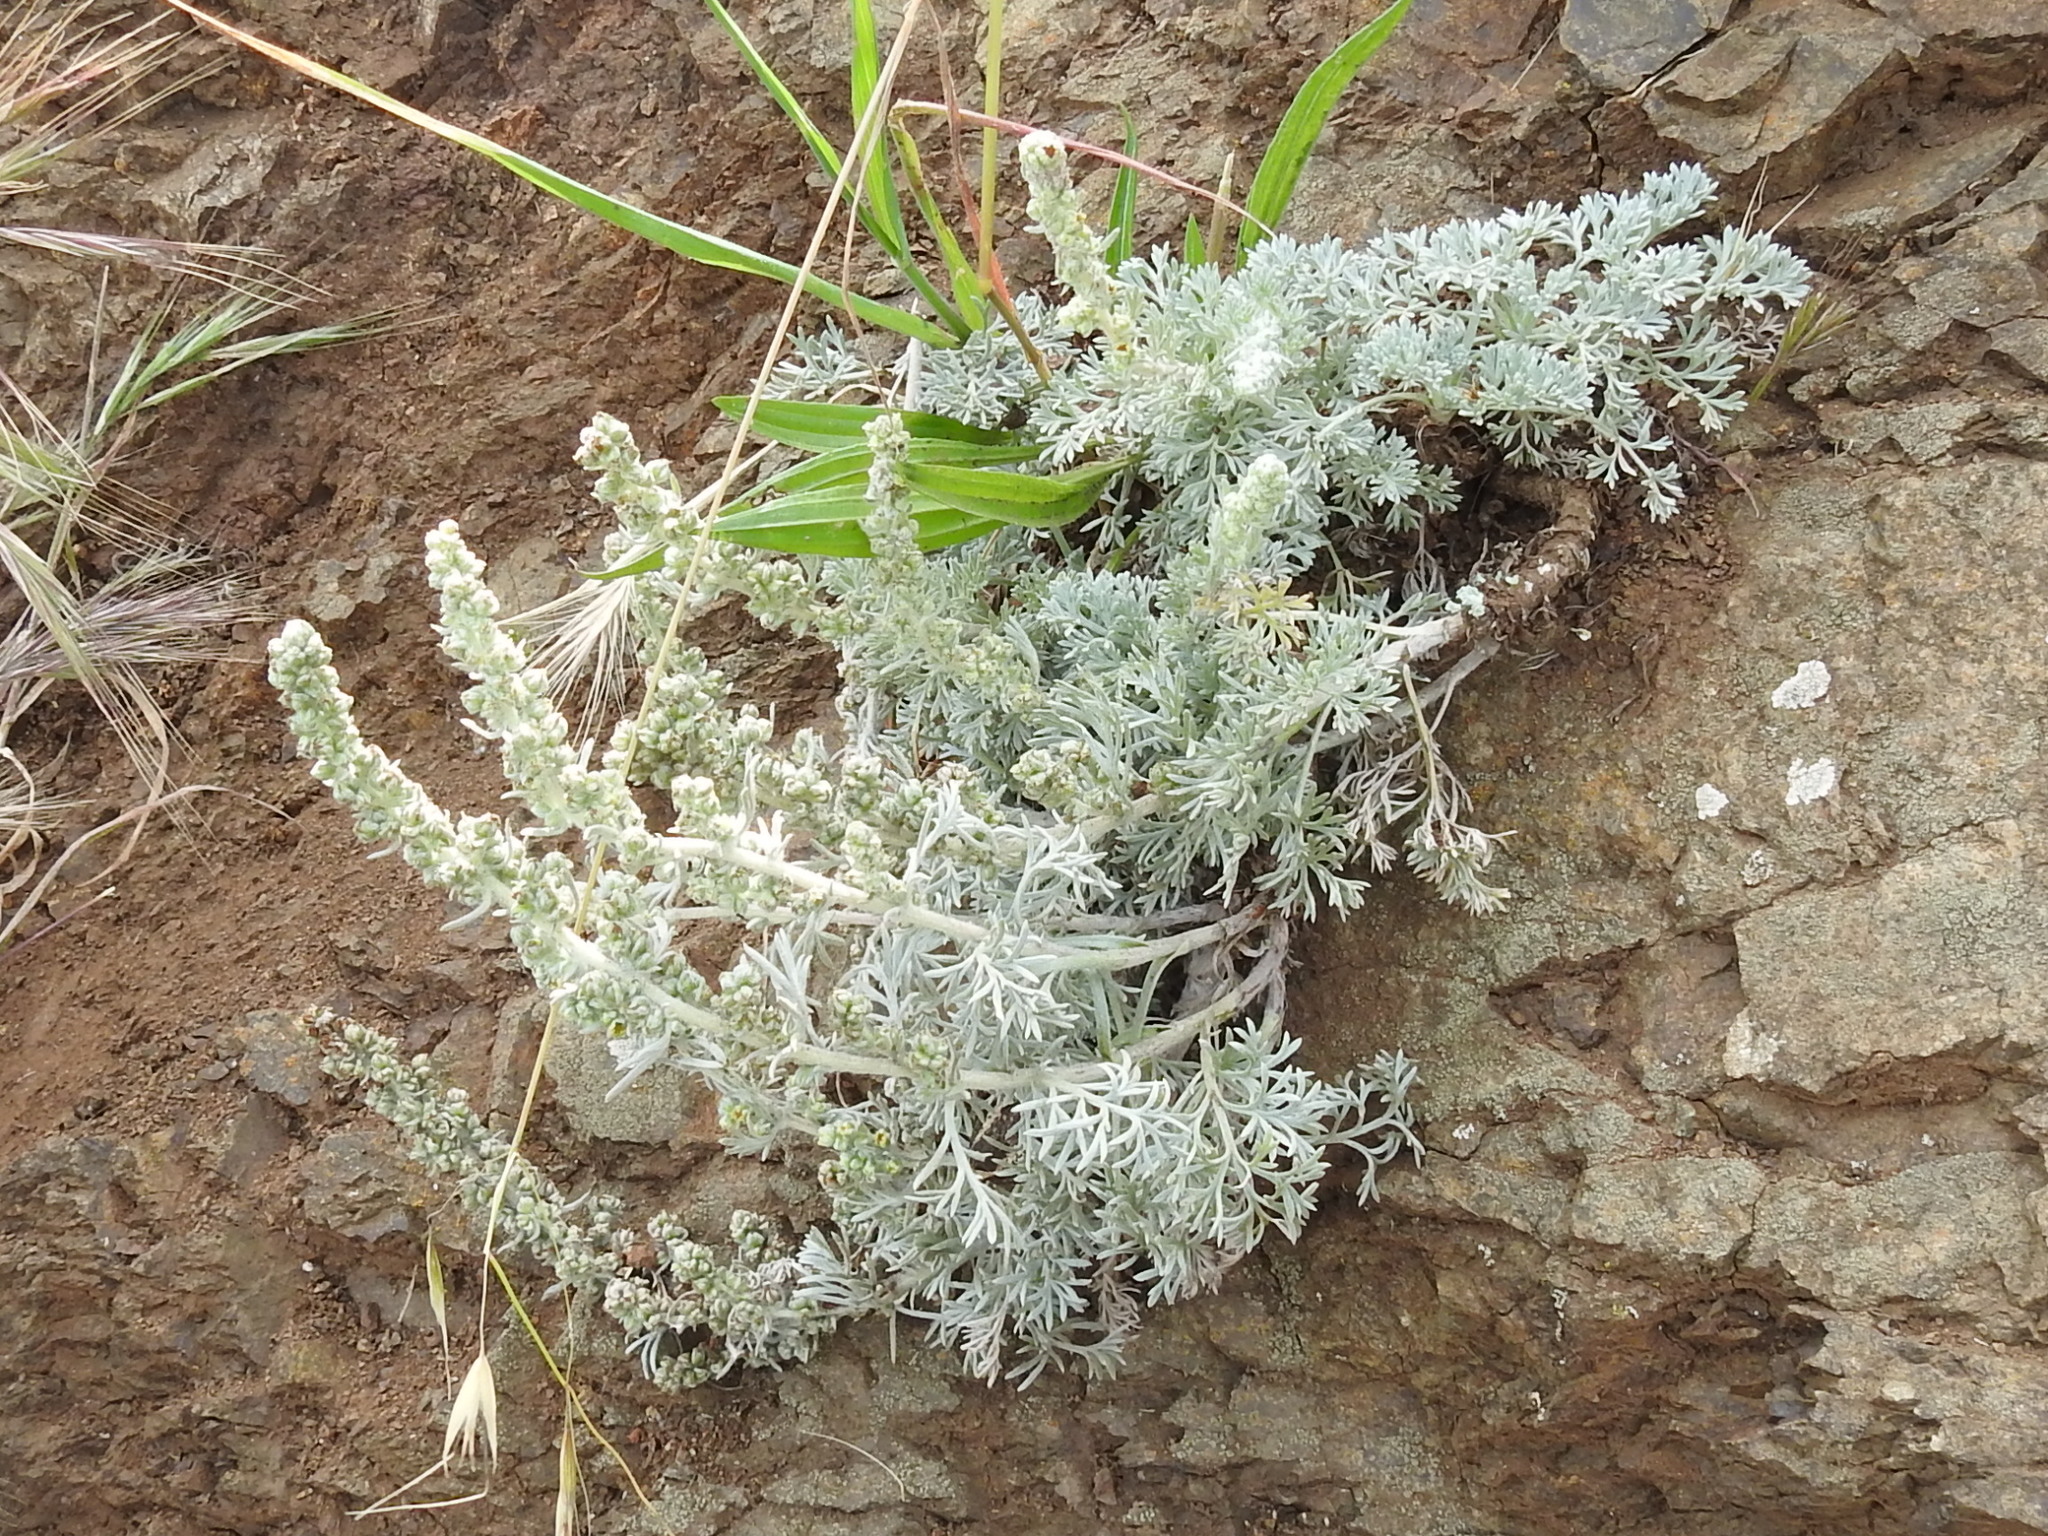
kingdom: Plantae
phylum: Tracheophyta
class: Magnoliopsida
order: Asterales
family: Asteraceae
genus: Artemisia
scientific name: Artemisia pycnocephala
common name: Coastal sagewort
